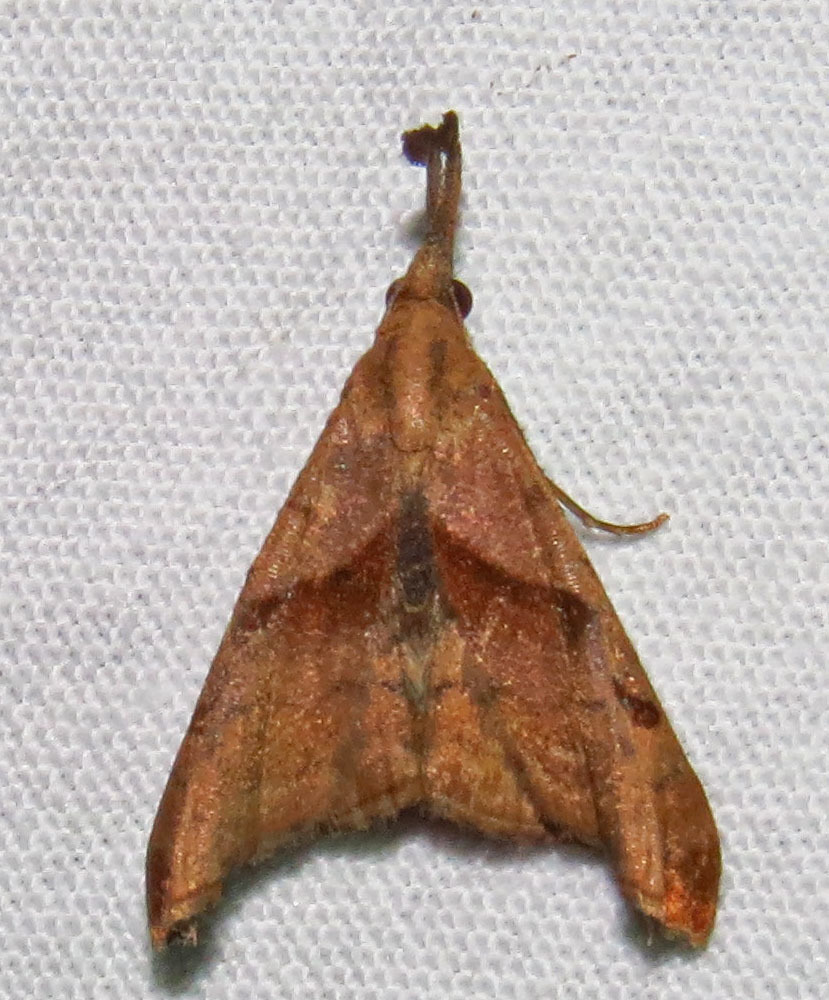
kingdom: Animalia
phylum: Arthropoda
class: Insecta
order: Lepidoptera
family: Erebidae
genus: Palthis
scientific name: Palthis angulalis
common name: Dark-spotted palthis moth
